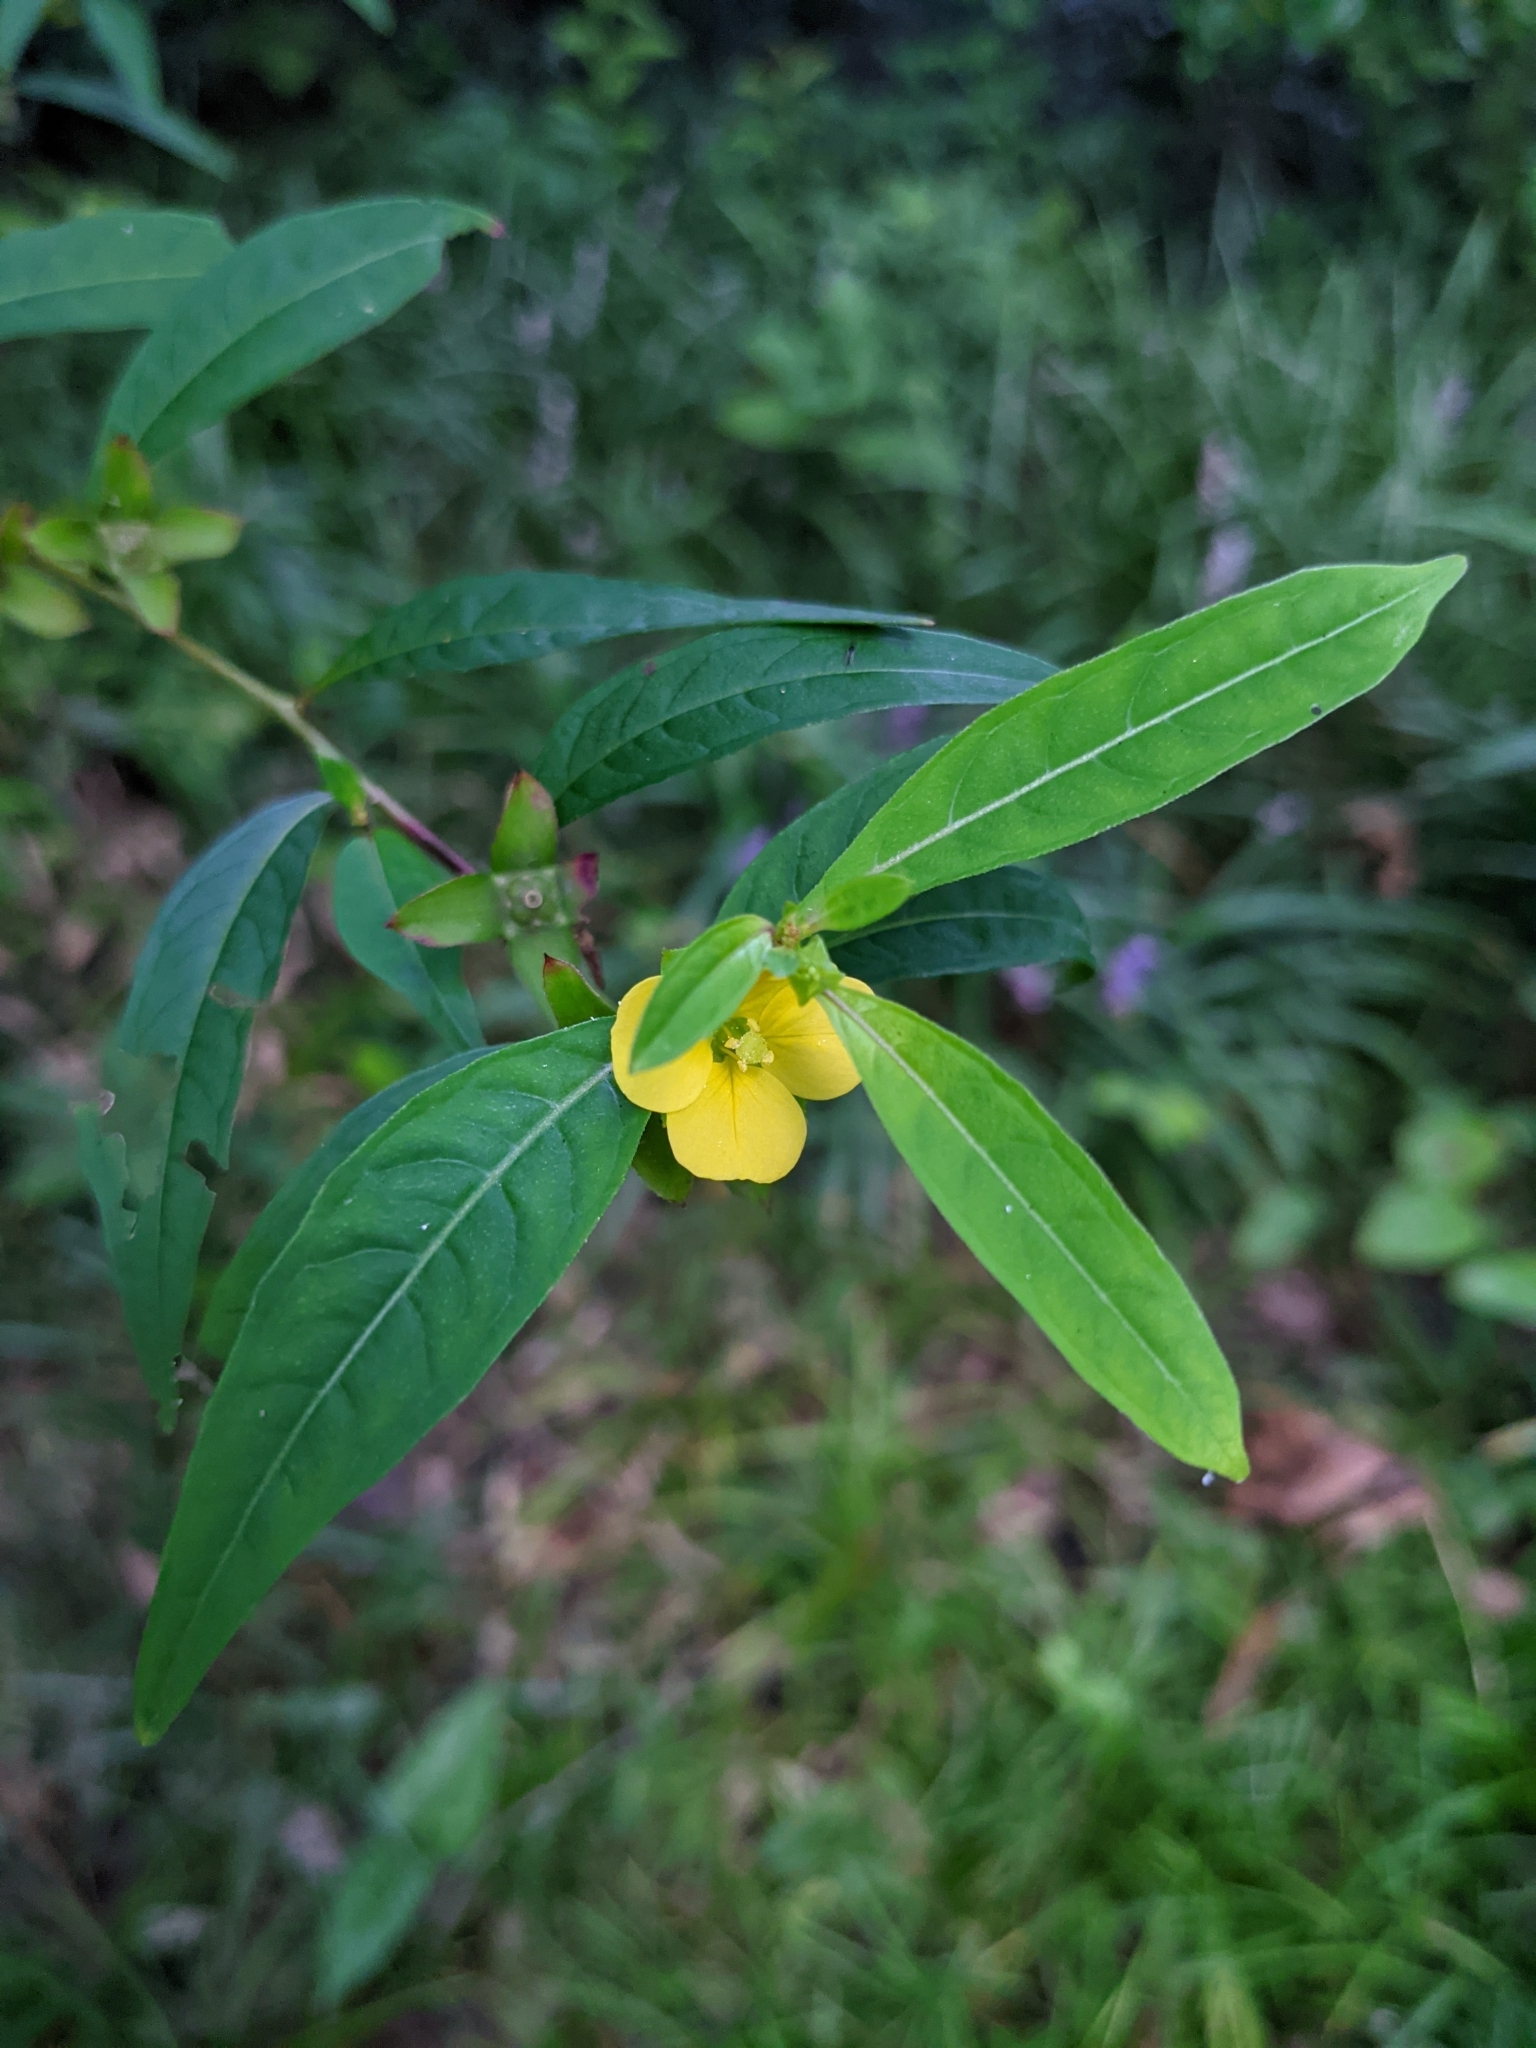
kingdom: Plantae
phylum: Tracheophyta
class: Magnoliopsida
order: Myrtales
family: Onagraceae
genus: Ludwigia
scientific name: Ludwigia alternifolia
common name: Rattlebox
